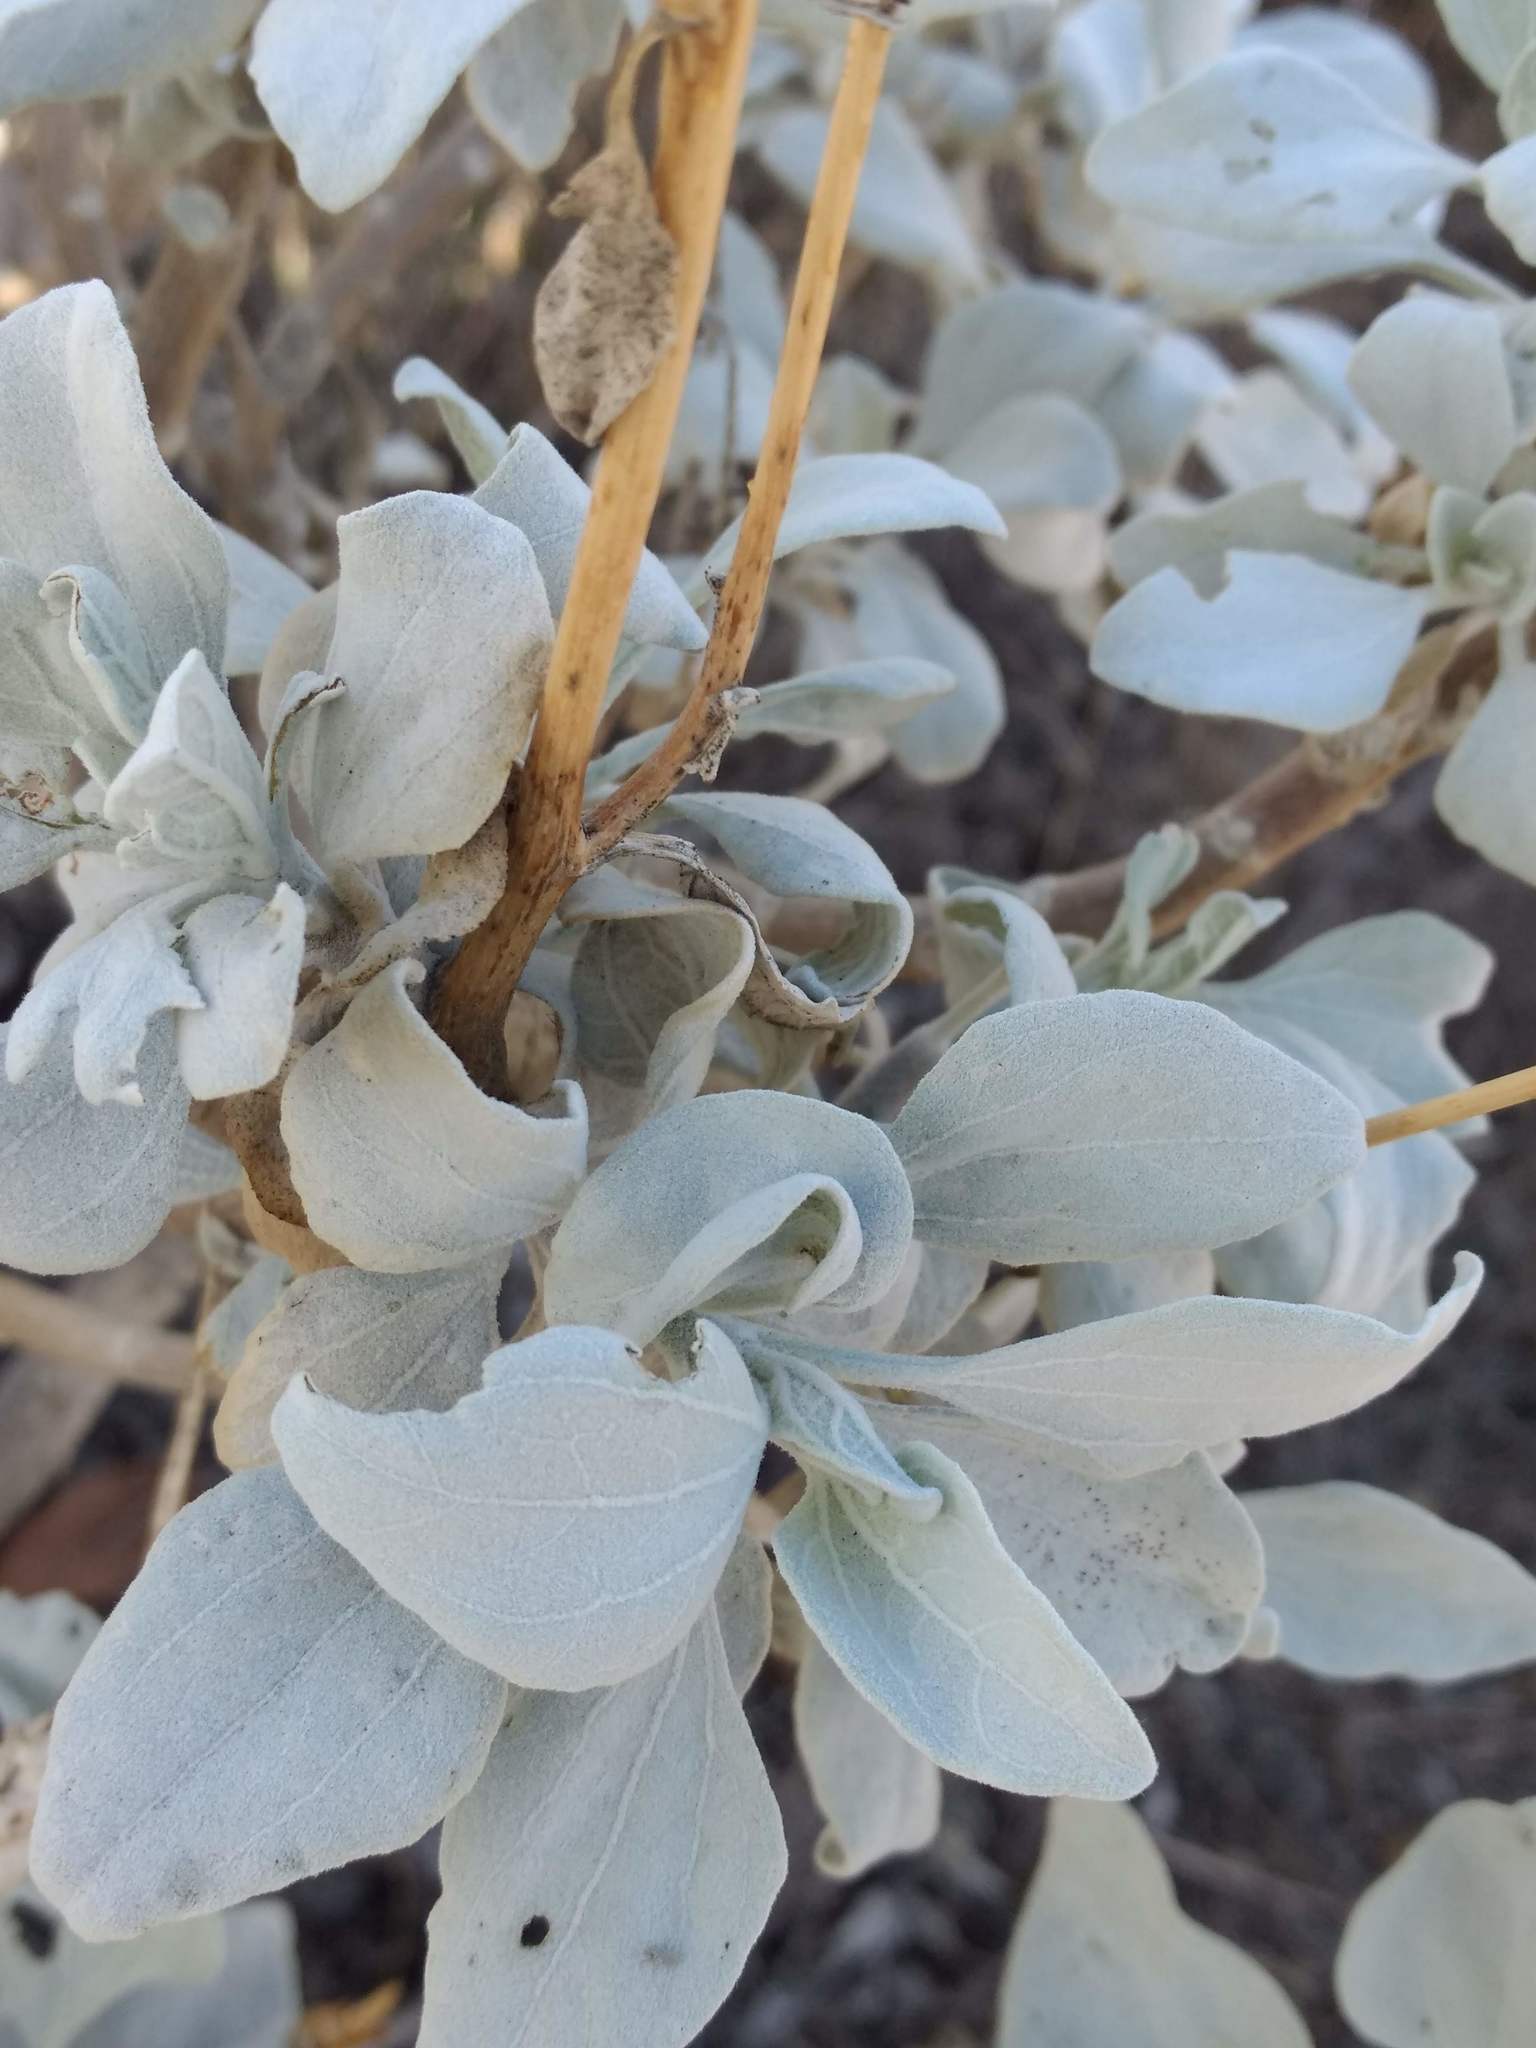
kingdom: Plantae
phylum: Tracheophyta
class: Magnoliopsida
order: Asterales
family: Asteraceae
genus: Encelia
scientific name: Encelia farinosa
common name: Brittlebush
